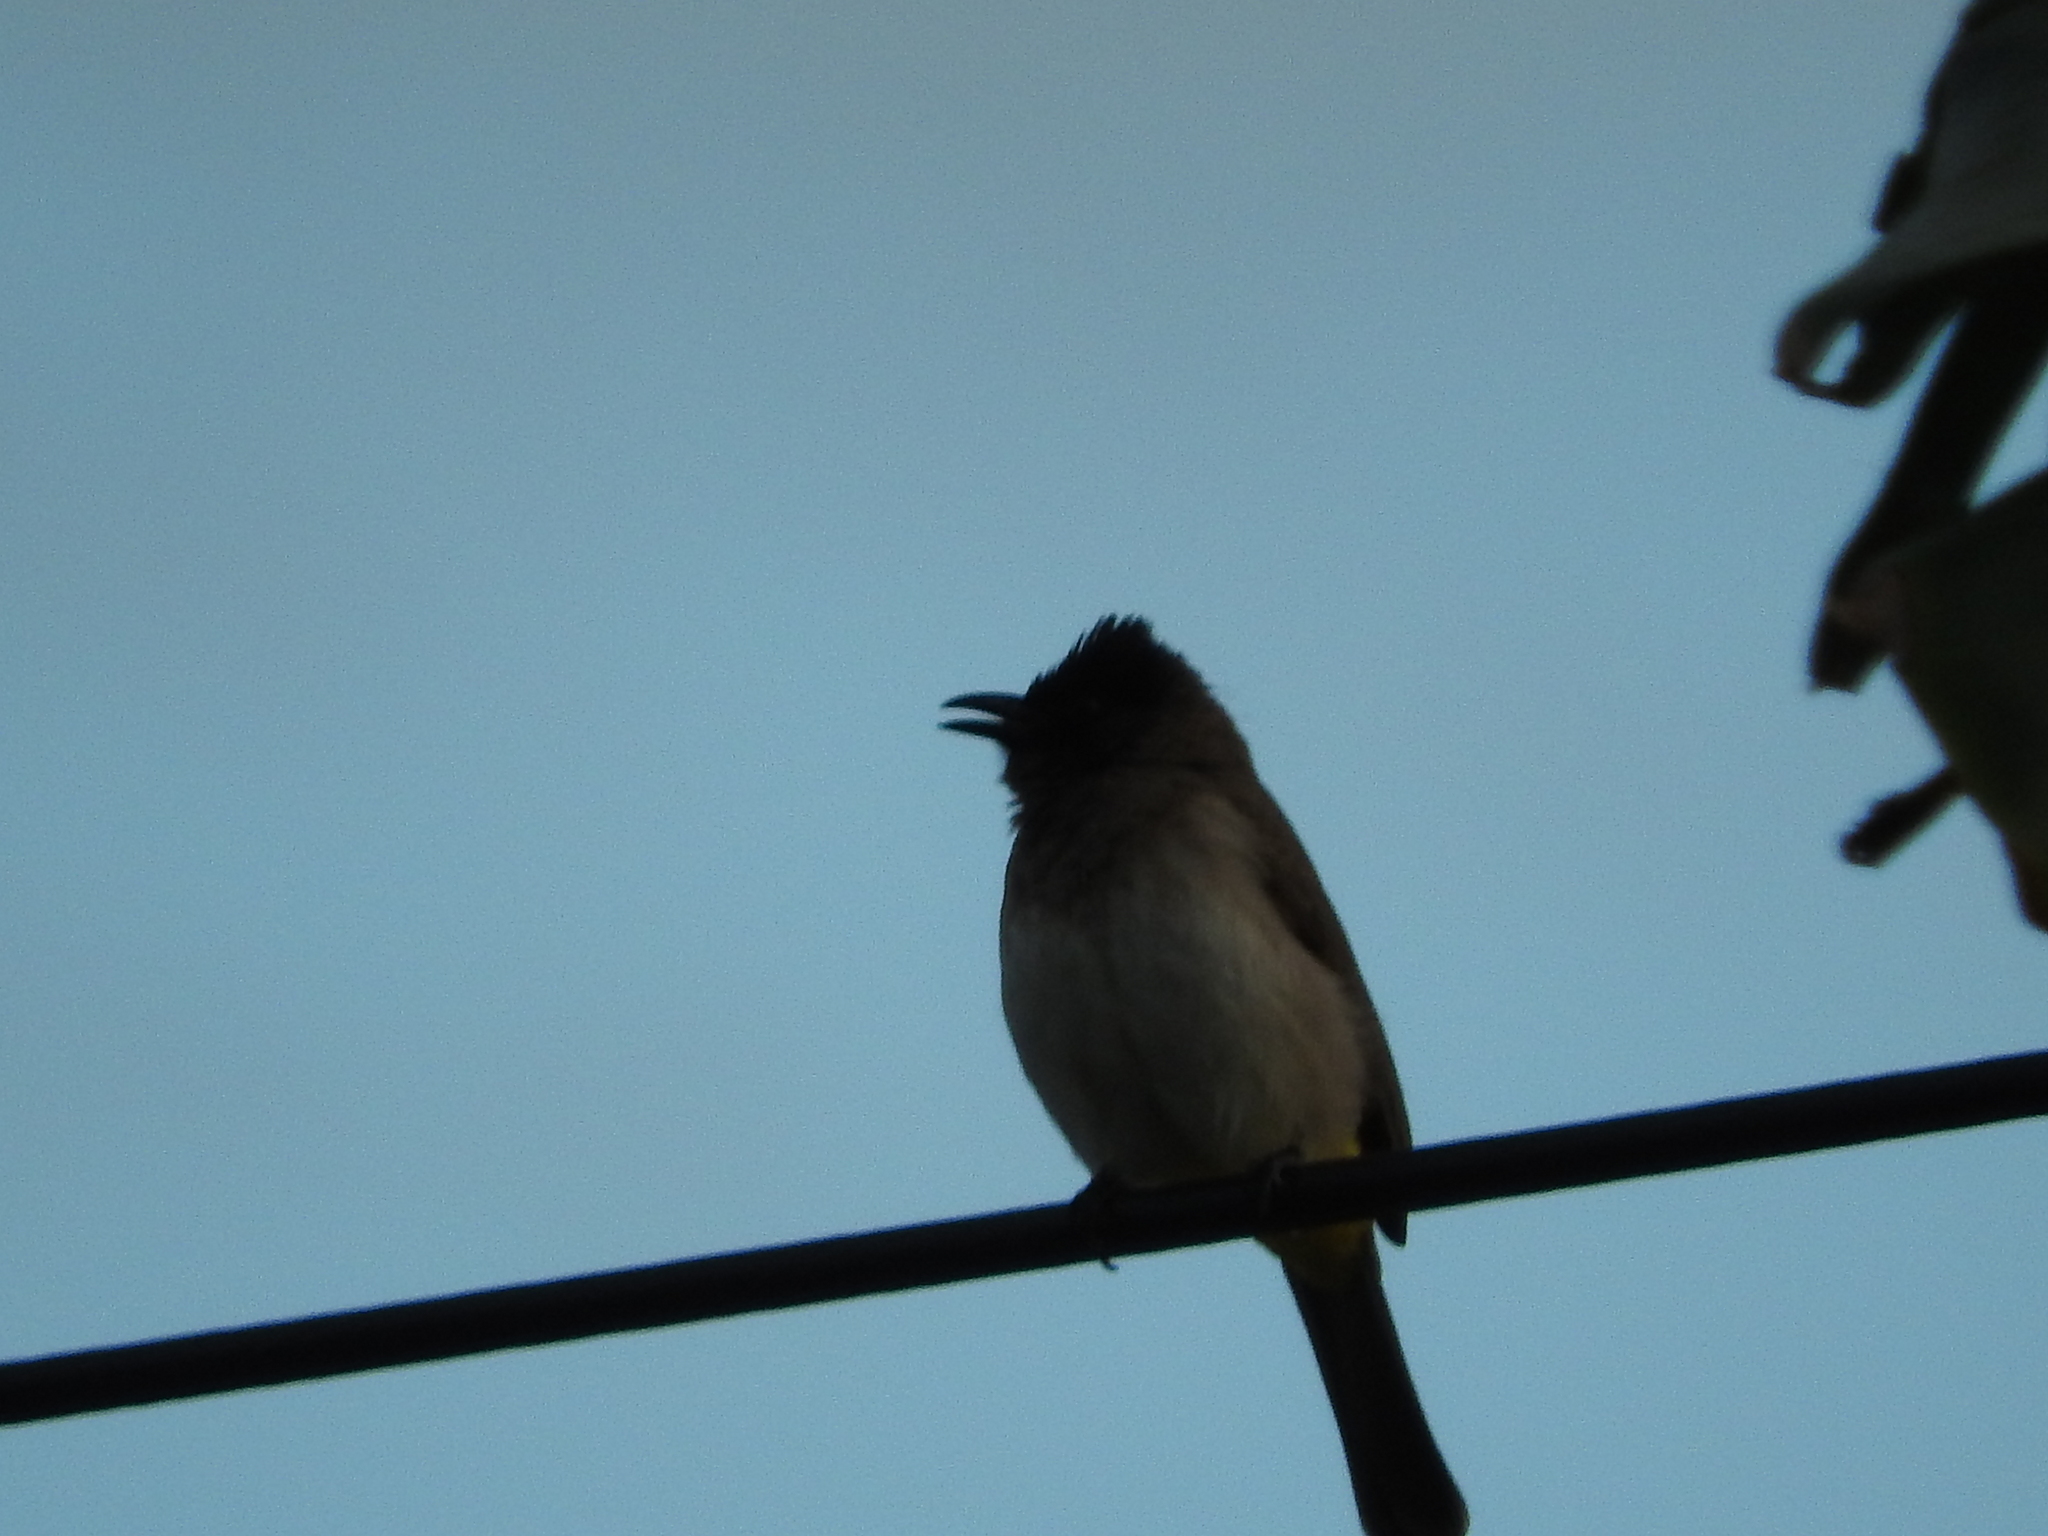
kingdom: Animalia
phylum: Chordata
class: Aves
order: Passeriformes
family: Pycnonotidae
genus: Pycnonotus
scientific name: Pycnonotus barbatus
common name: Common bulbul
